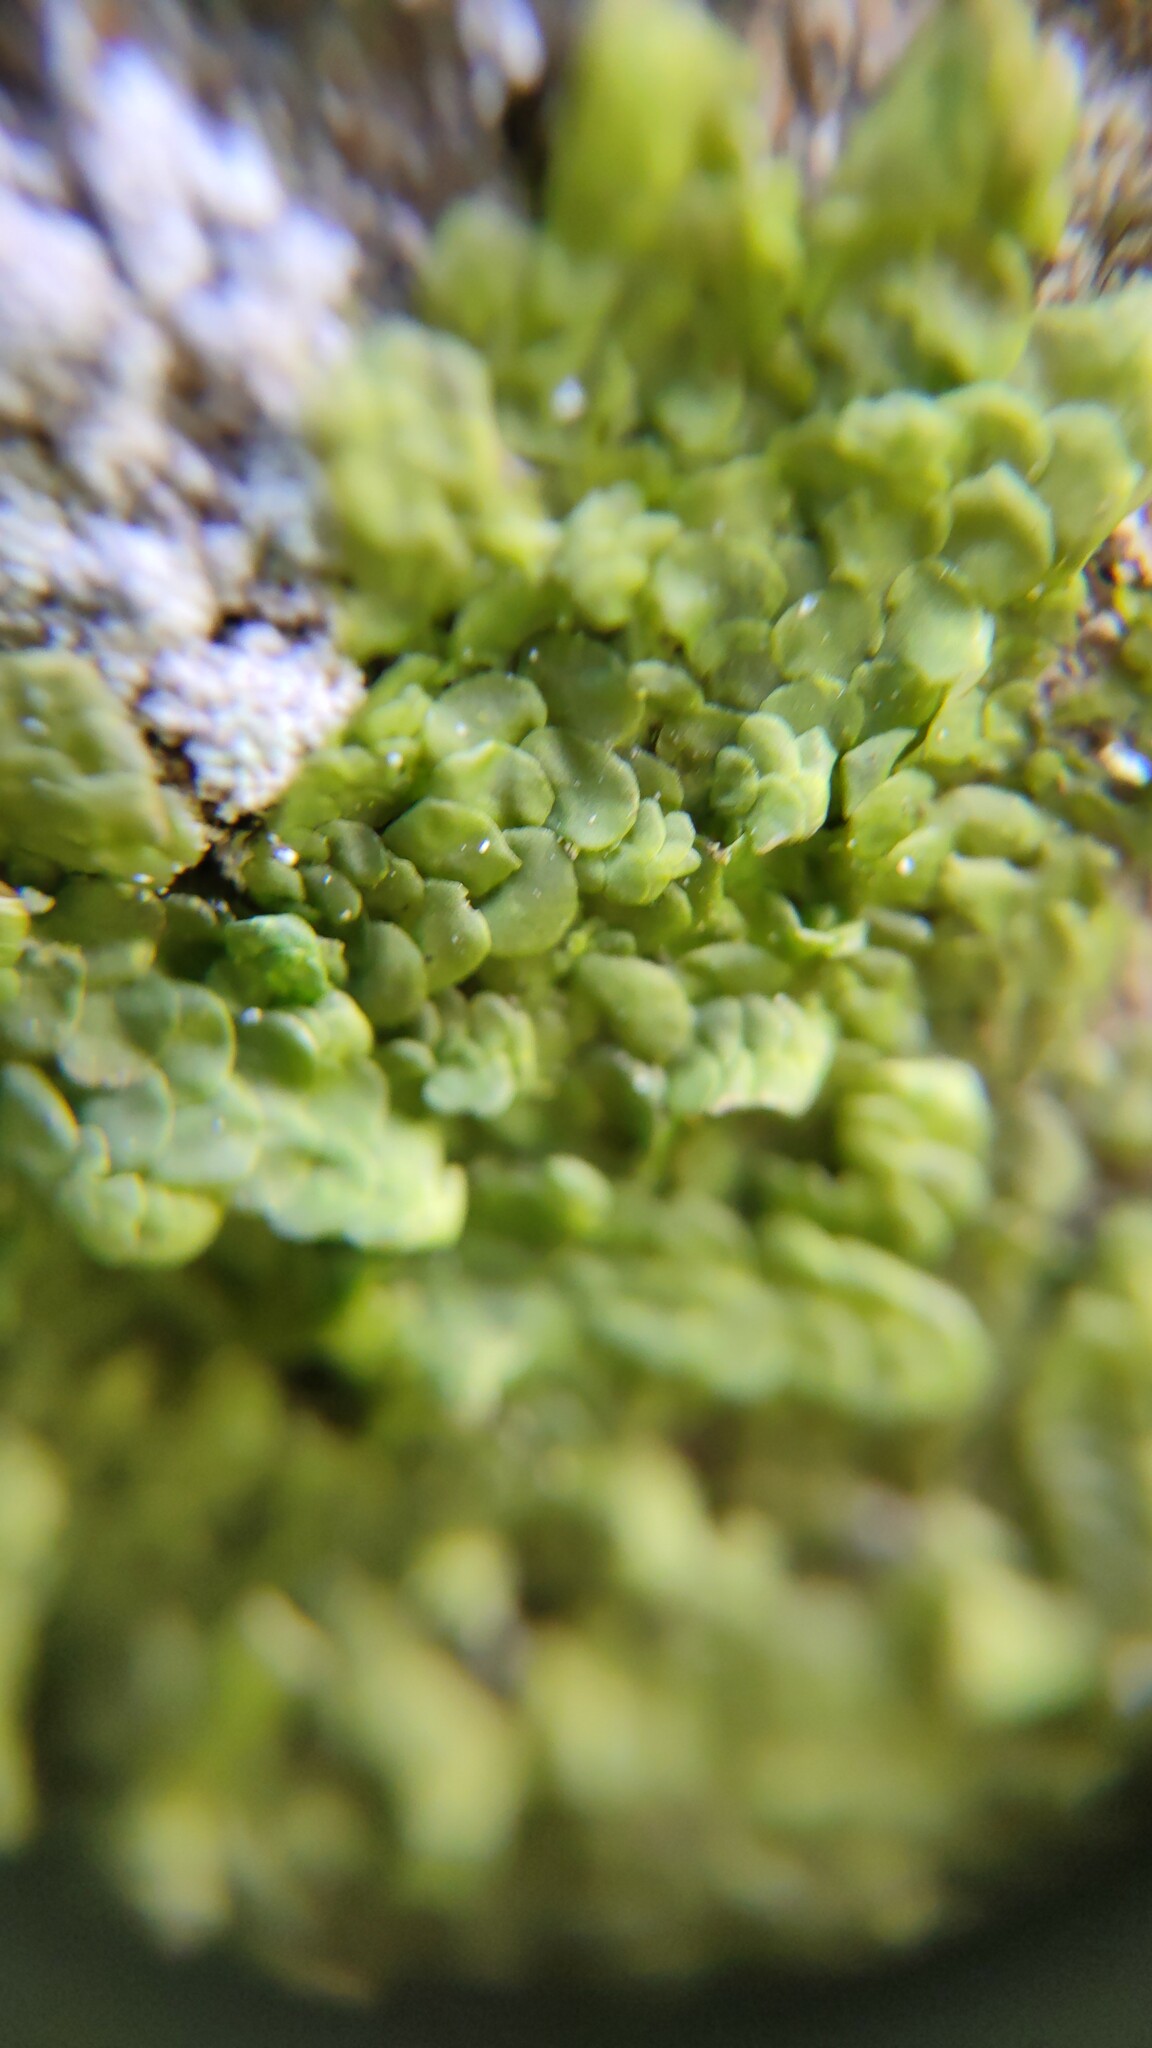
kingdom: Plantae
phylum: Marchantiophyta
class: Jungermanniopsida
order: Porellales
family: Radulaceae
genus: Radula
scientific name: Radula complanata
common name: Flat-leaved scalewort
